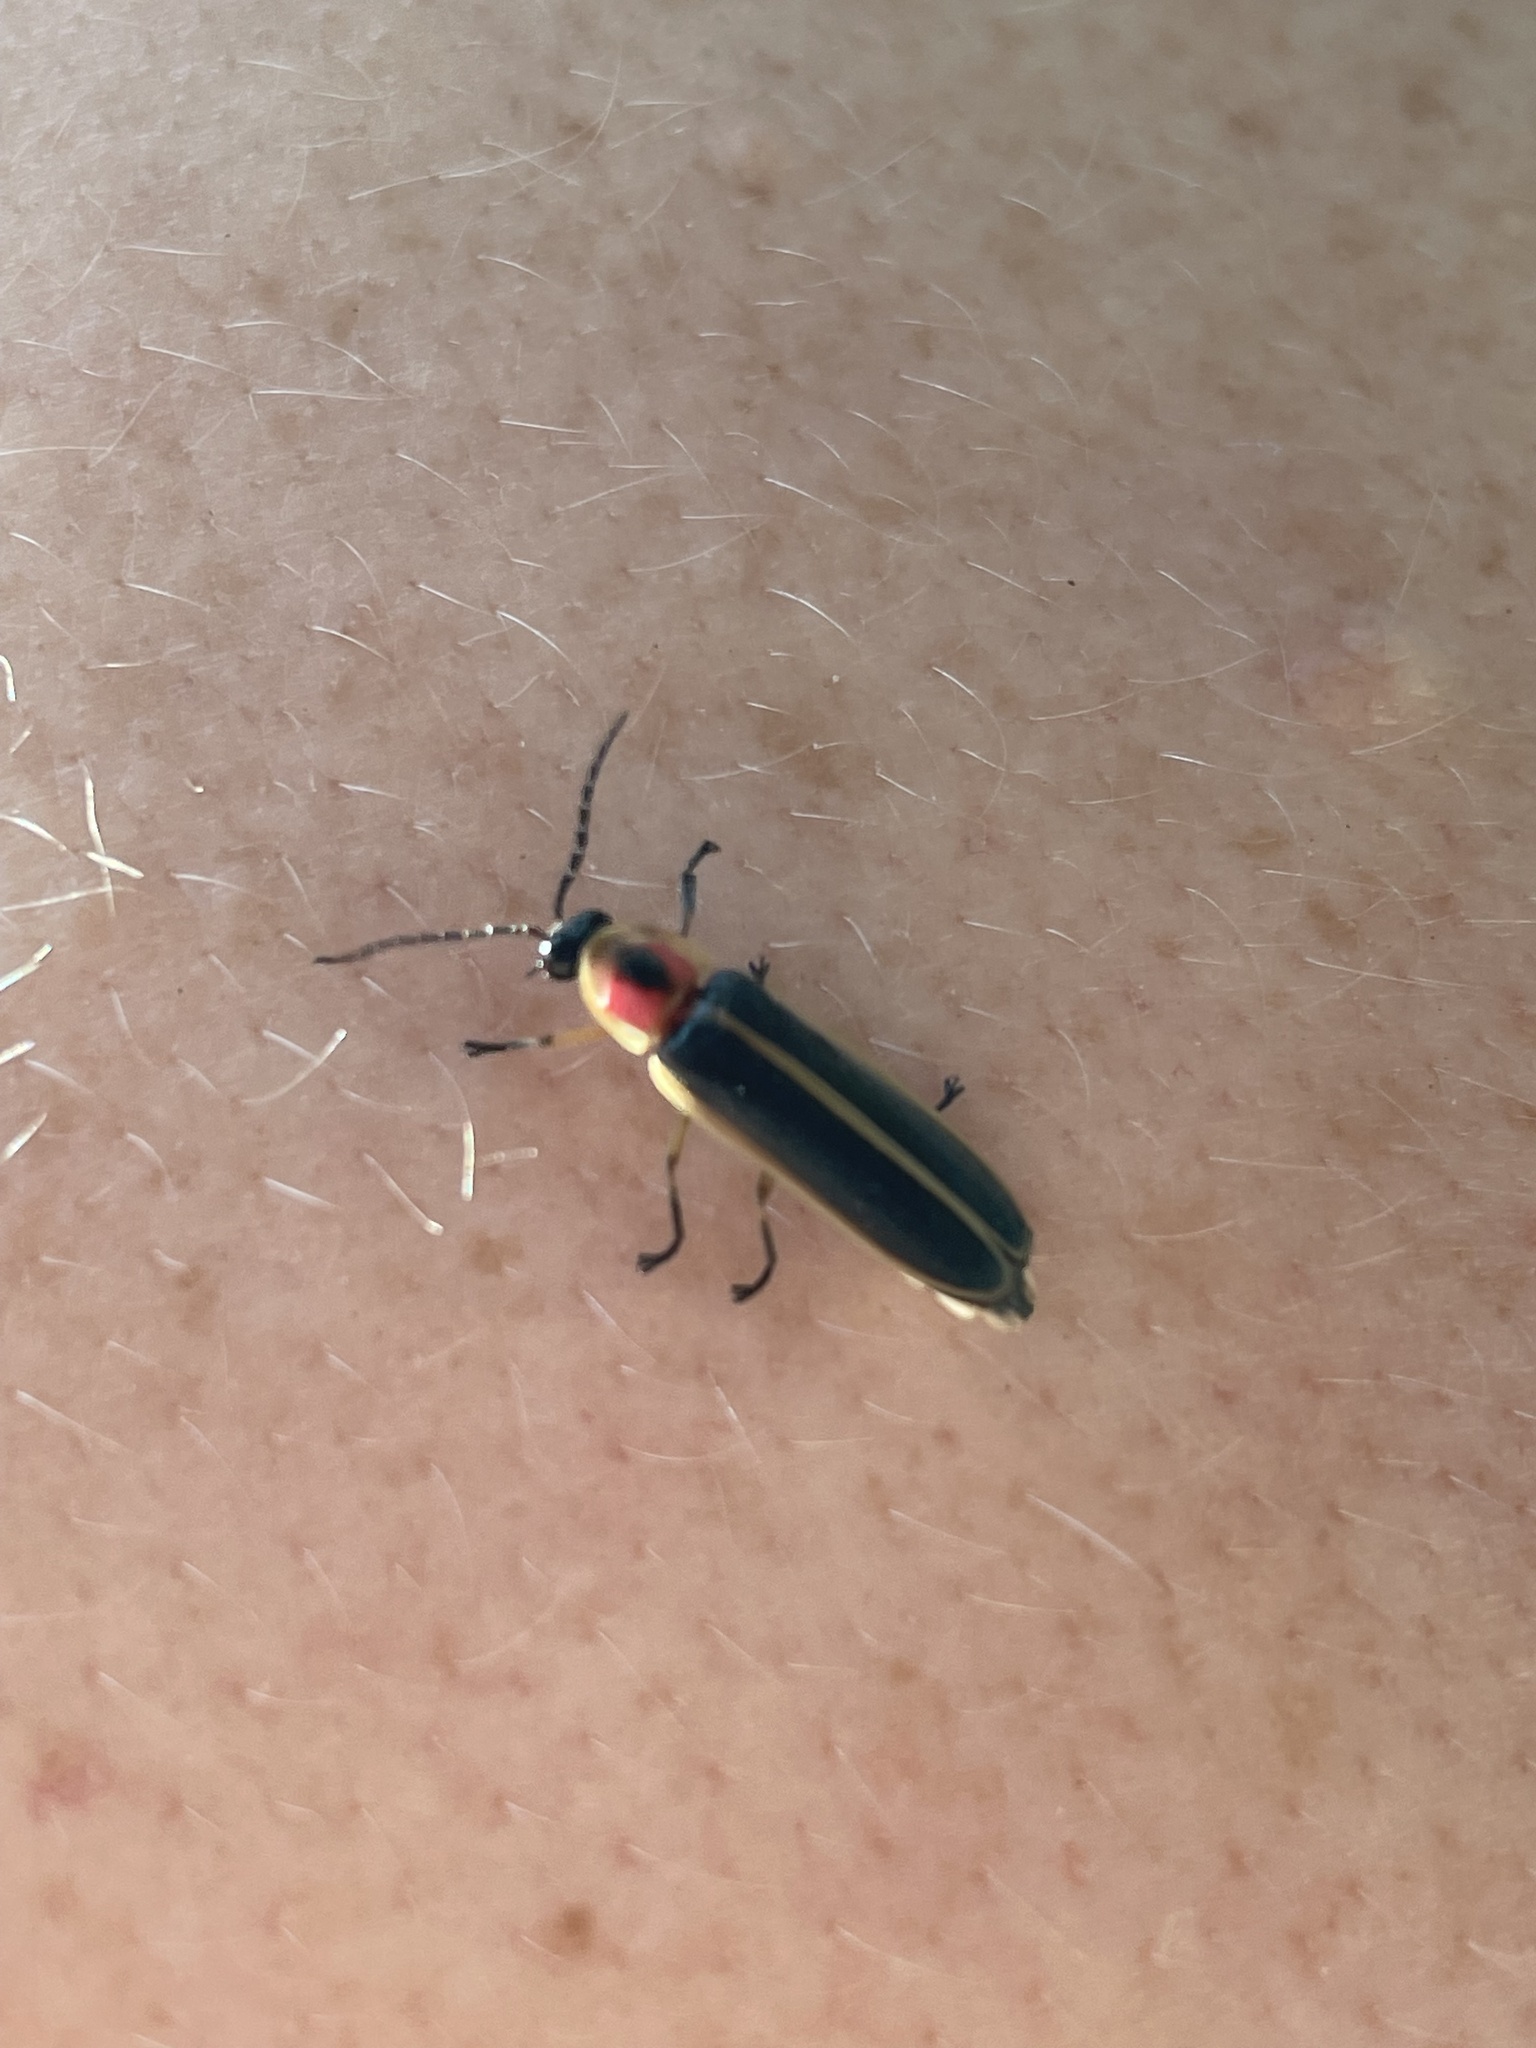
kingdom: Animalia
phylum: Arthropoda
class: Insecta
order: Coleoptera
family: Lampyridae
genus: Photinus
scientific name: Photinus pyralis
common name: Big dipper firefly
